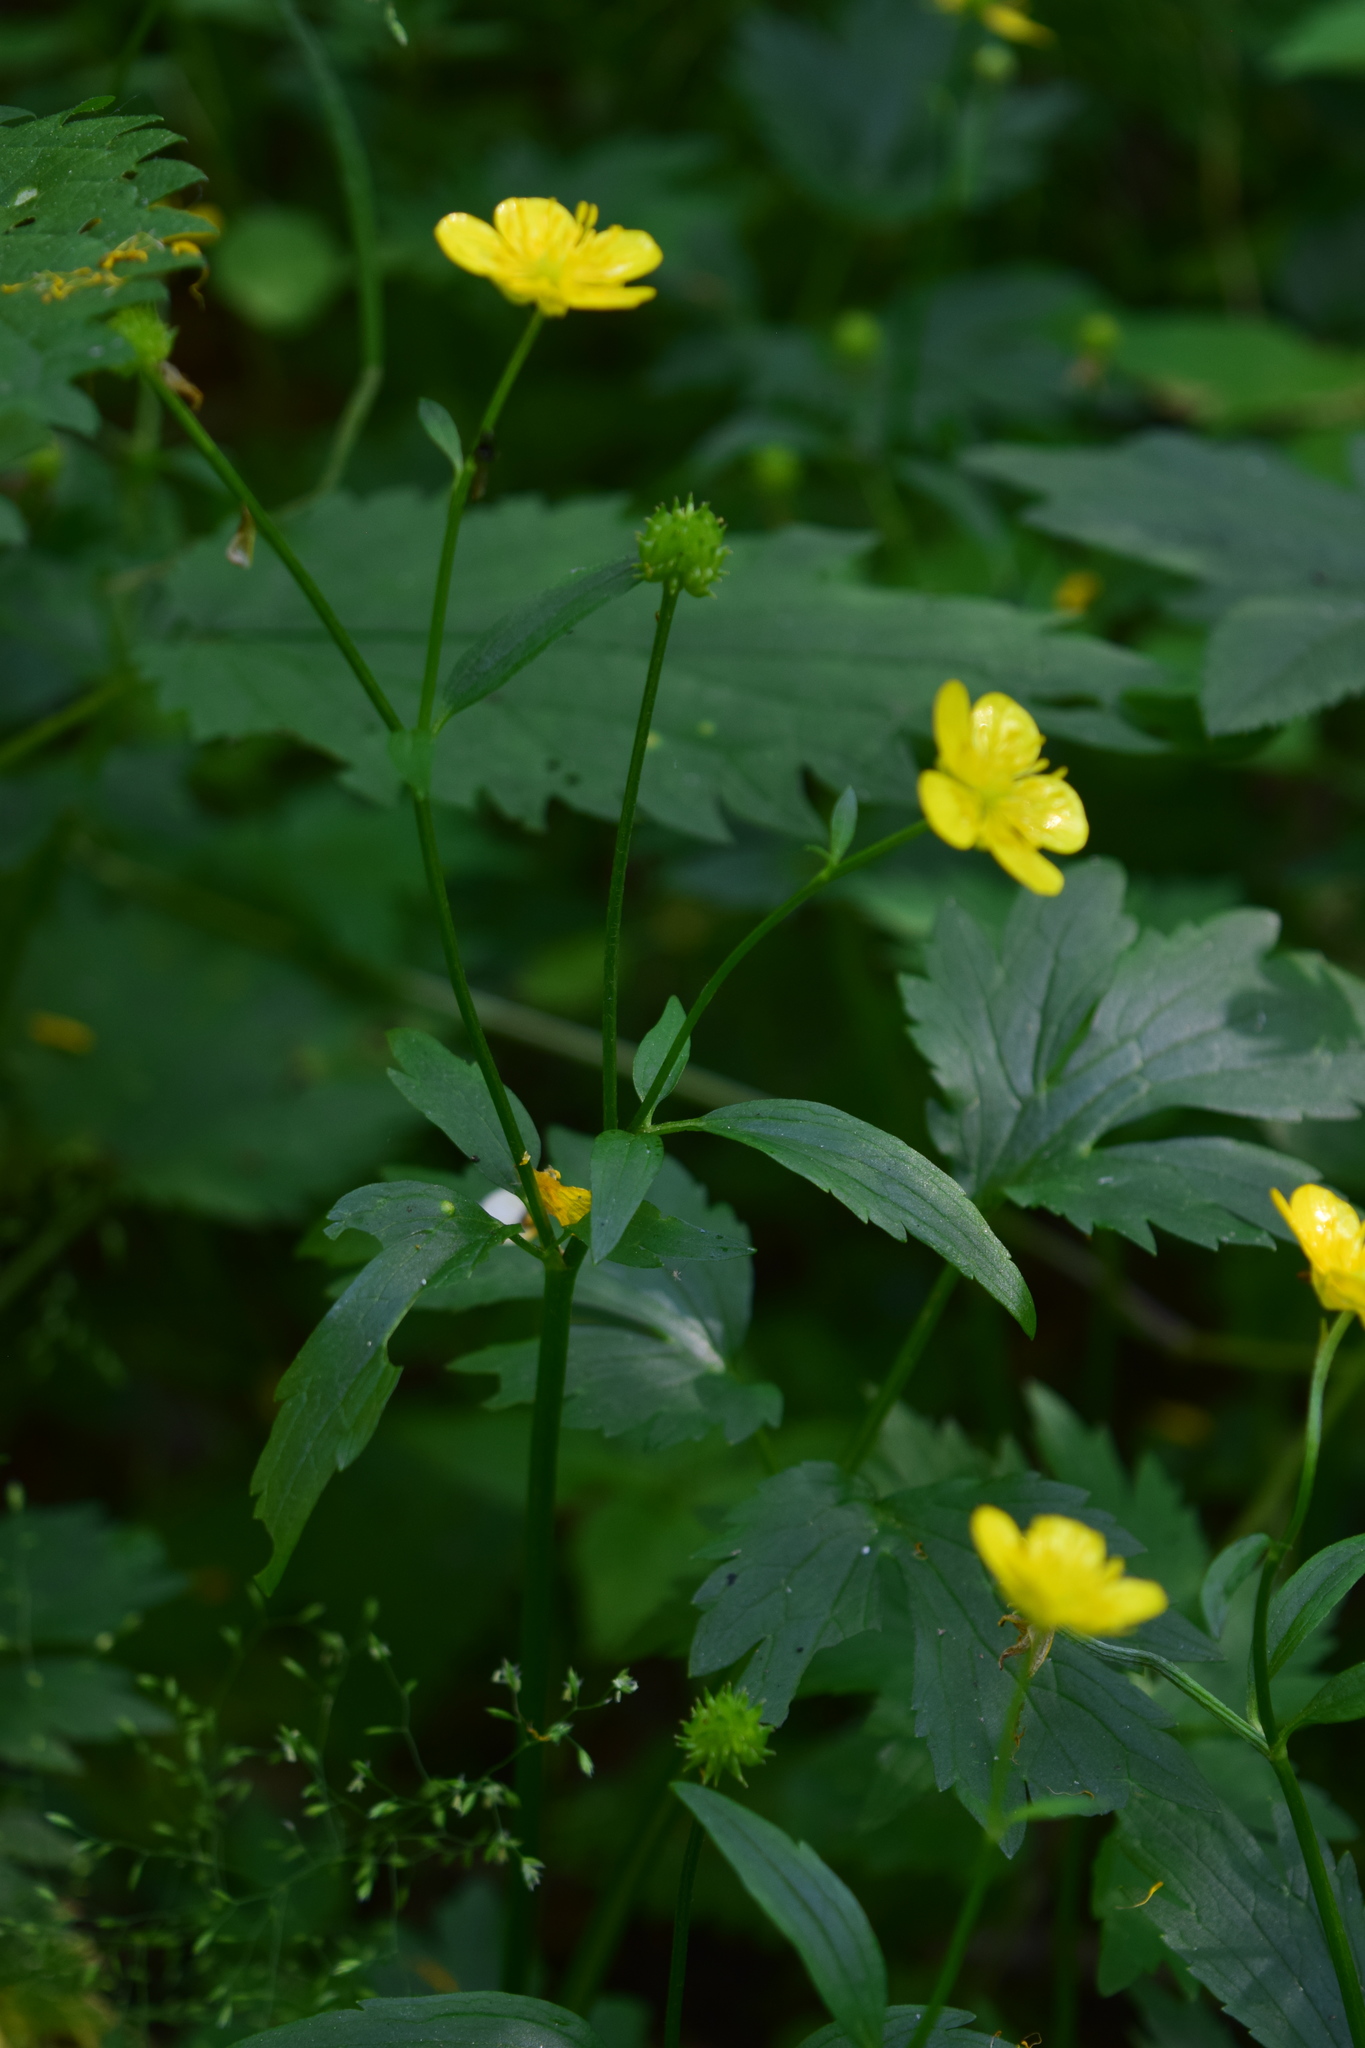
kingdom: Plantae
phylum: Tracheophyta
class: Magnoliopsida
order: Ranunculales
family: Ranunculaceae
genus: Ranunculus
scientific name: Ranunculus repens
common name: Creeping buttercup
